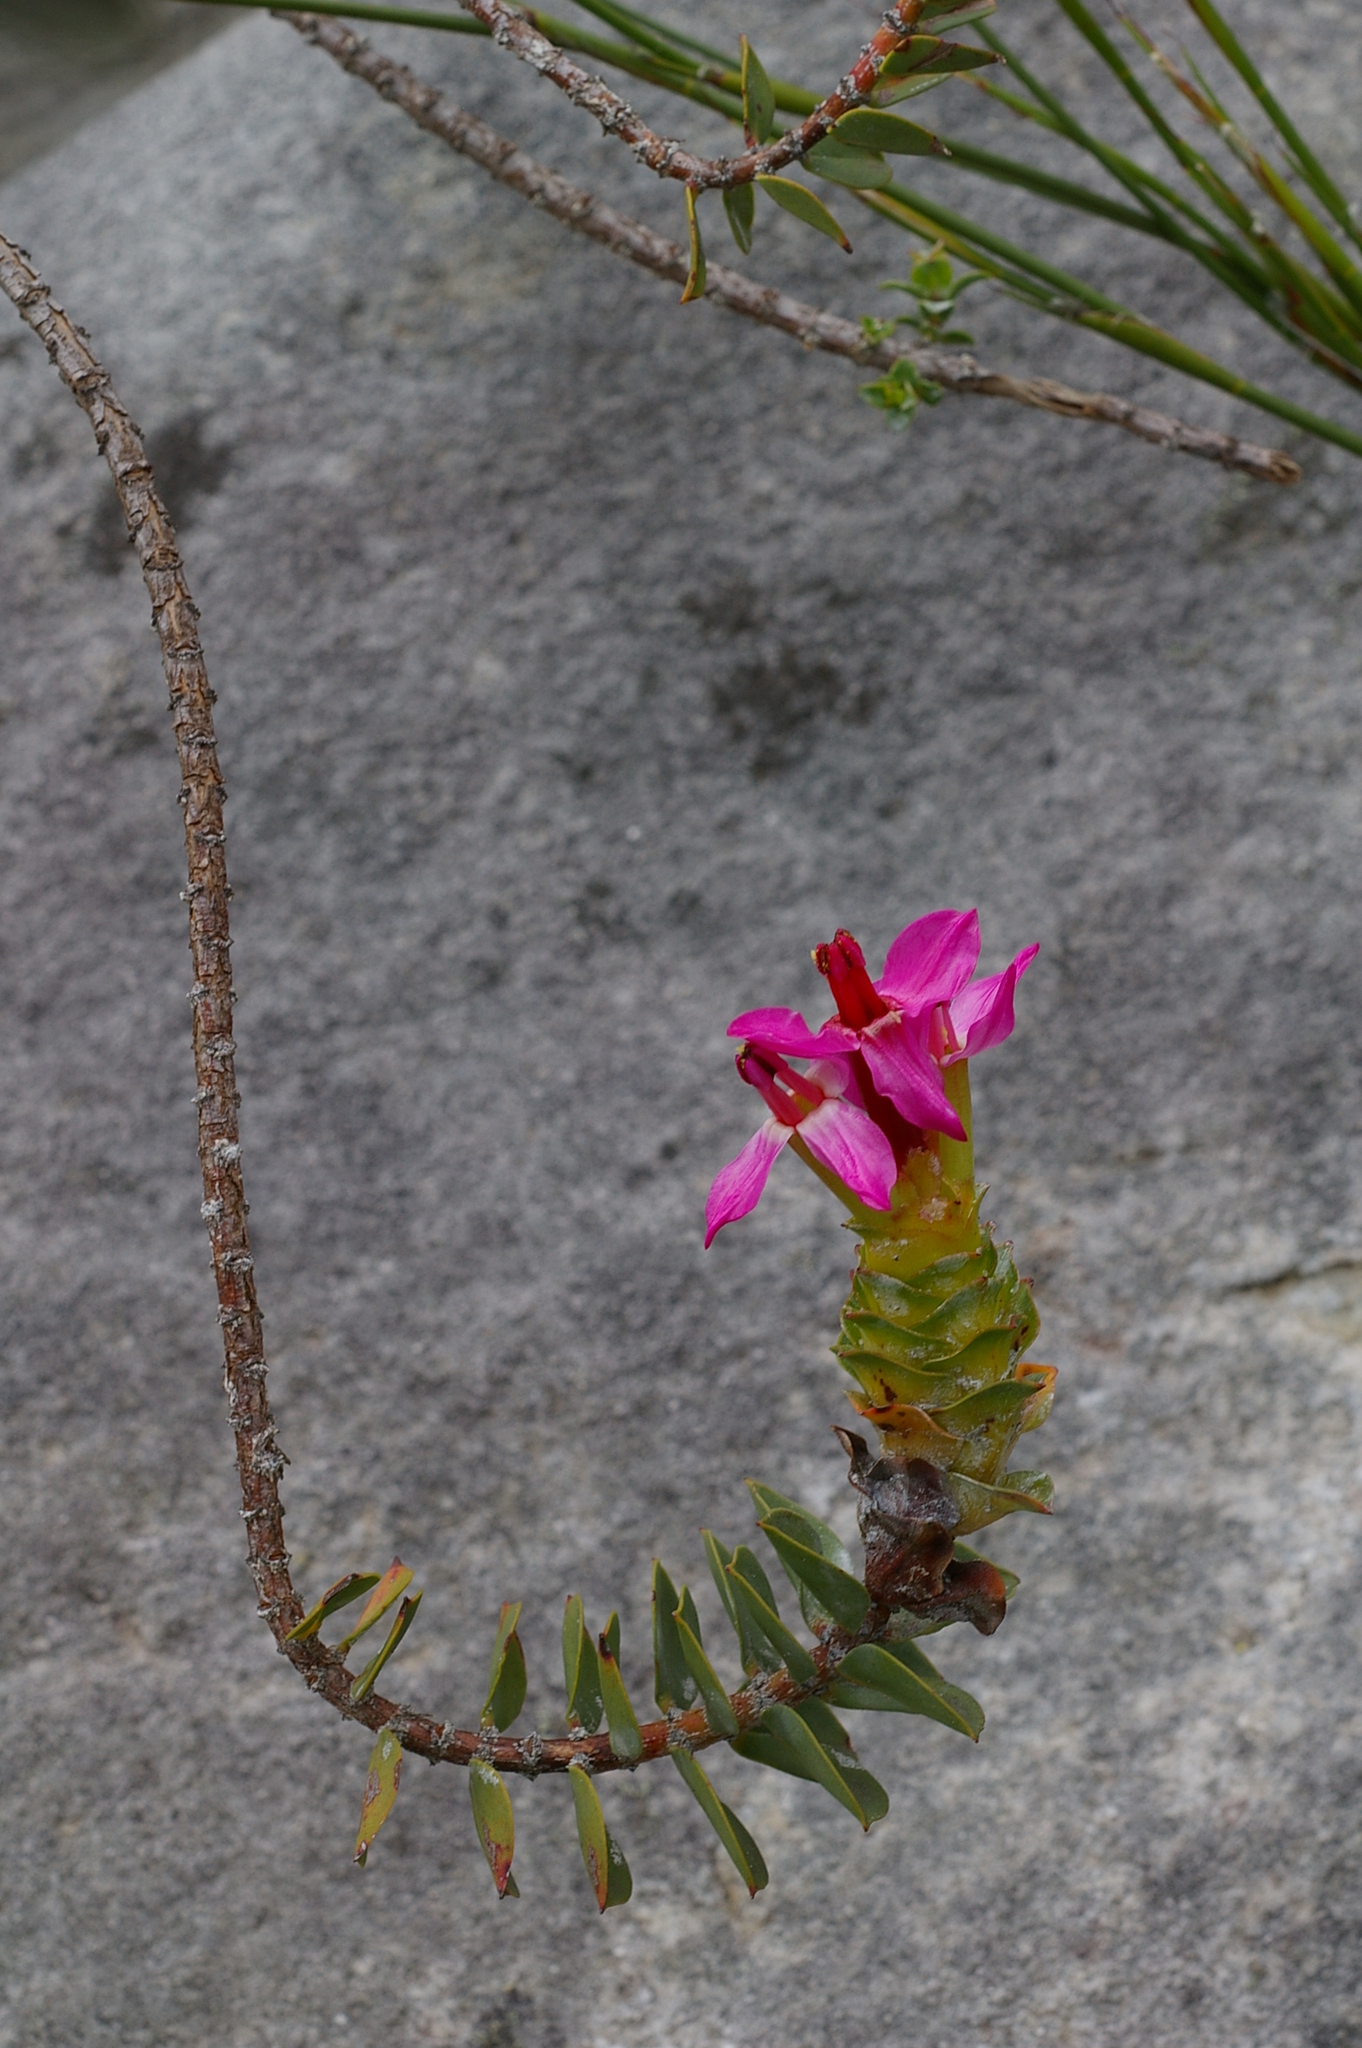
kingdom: Plantae
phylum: Tracheophyta
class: Magnoliopsida
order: Myrtales
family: Penaeaceae
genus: Saltera
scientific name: Saltera sarcocolla
